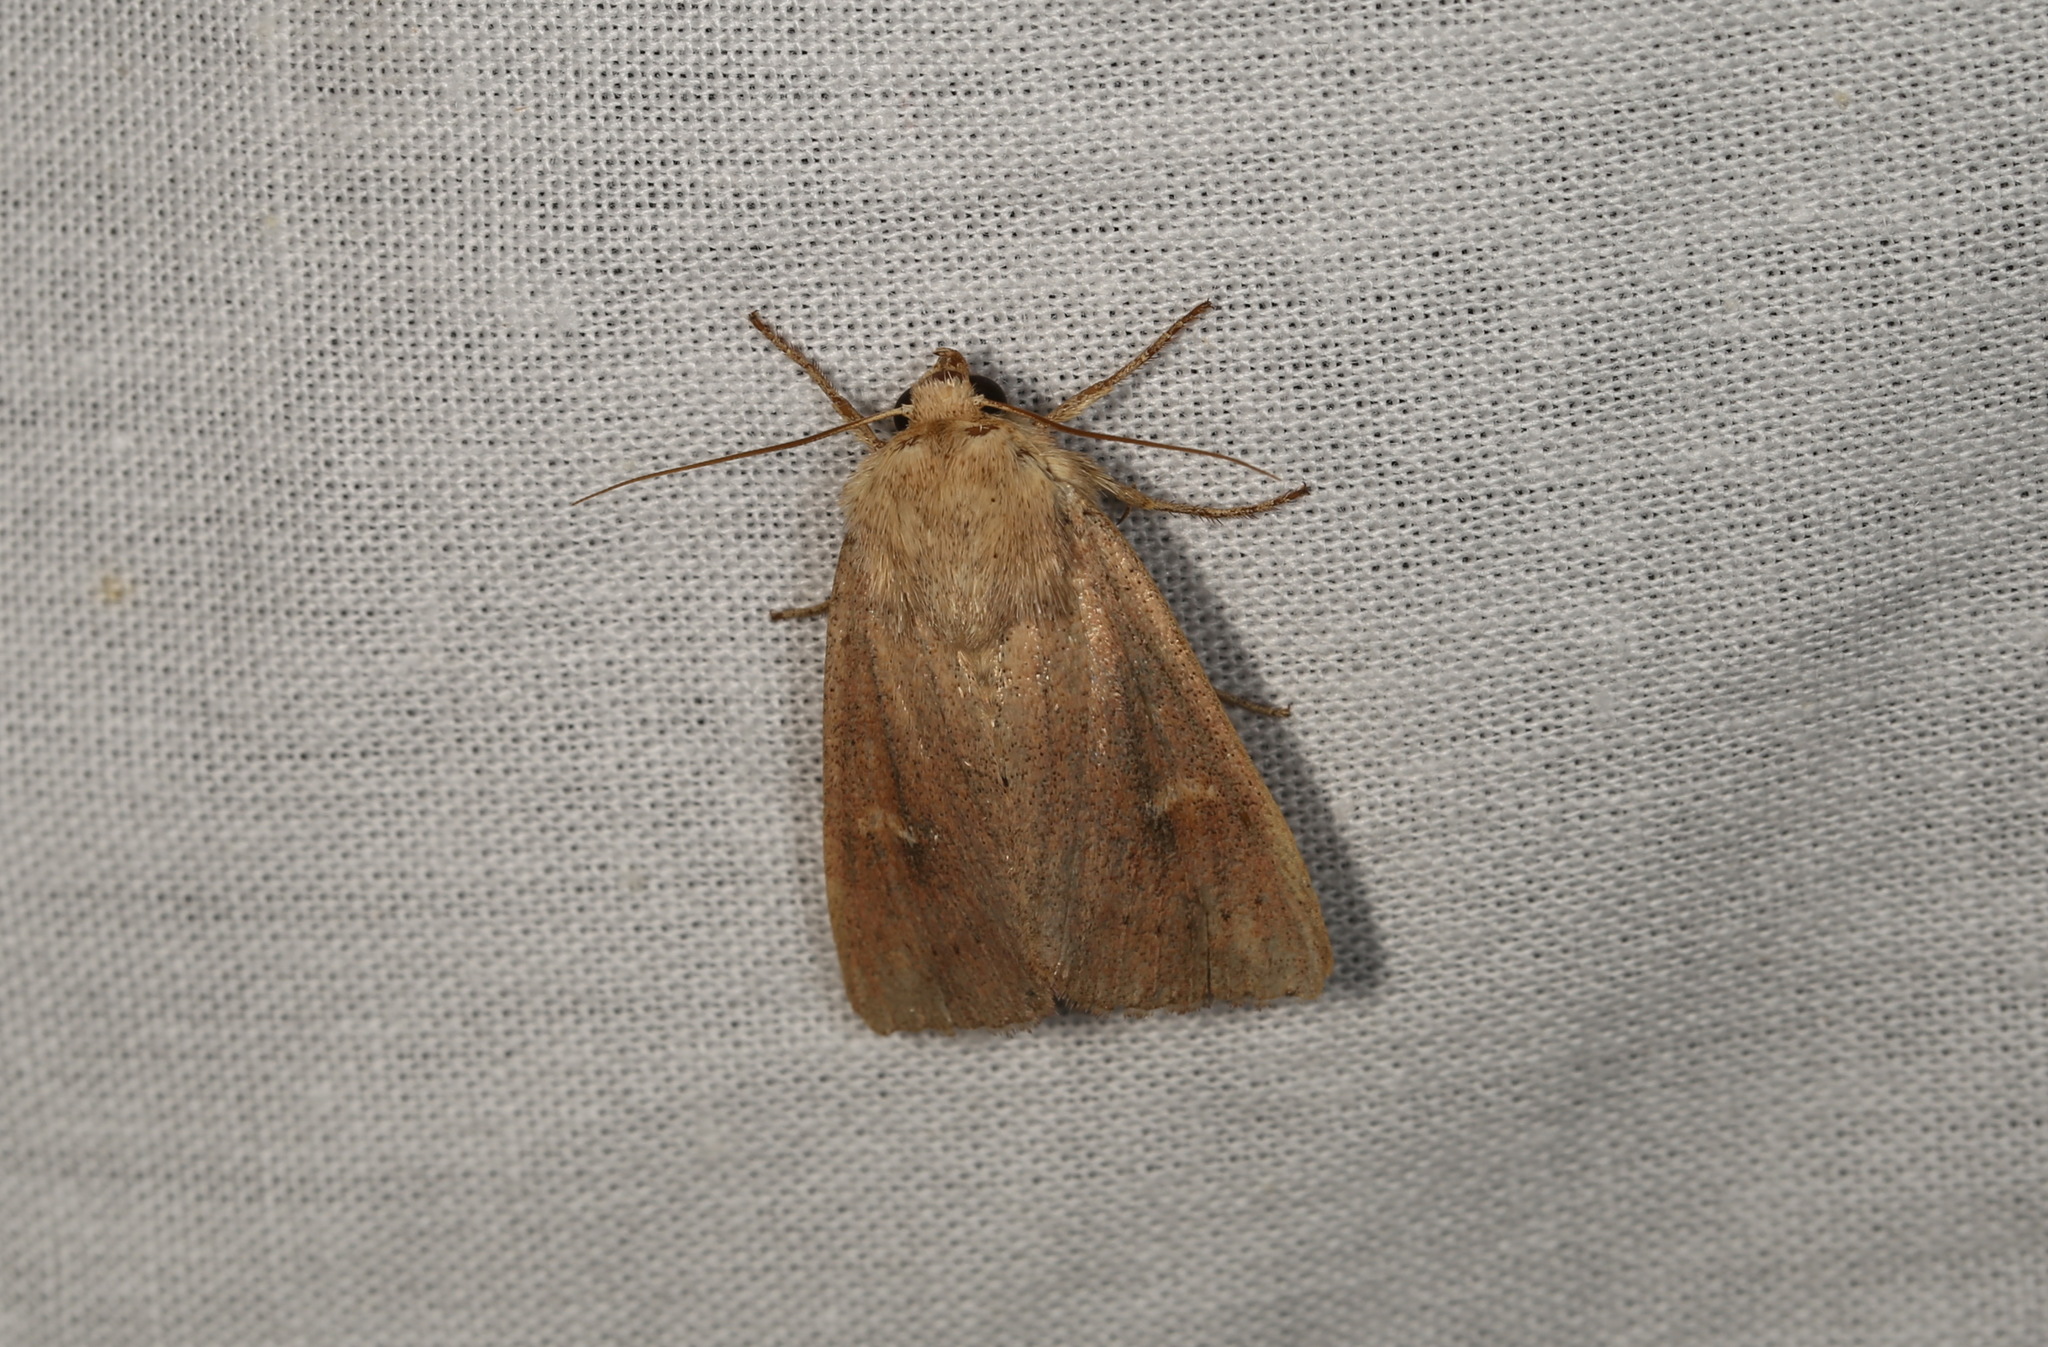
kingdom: Animalia
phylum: Arthropoda
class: Insecta
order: Lepidoptera
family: Noctuidae
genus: Mythimna
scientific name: Mythimna ferrago
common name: Clay
